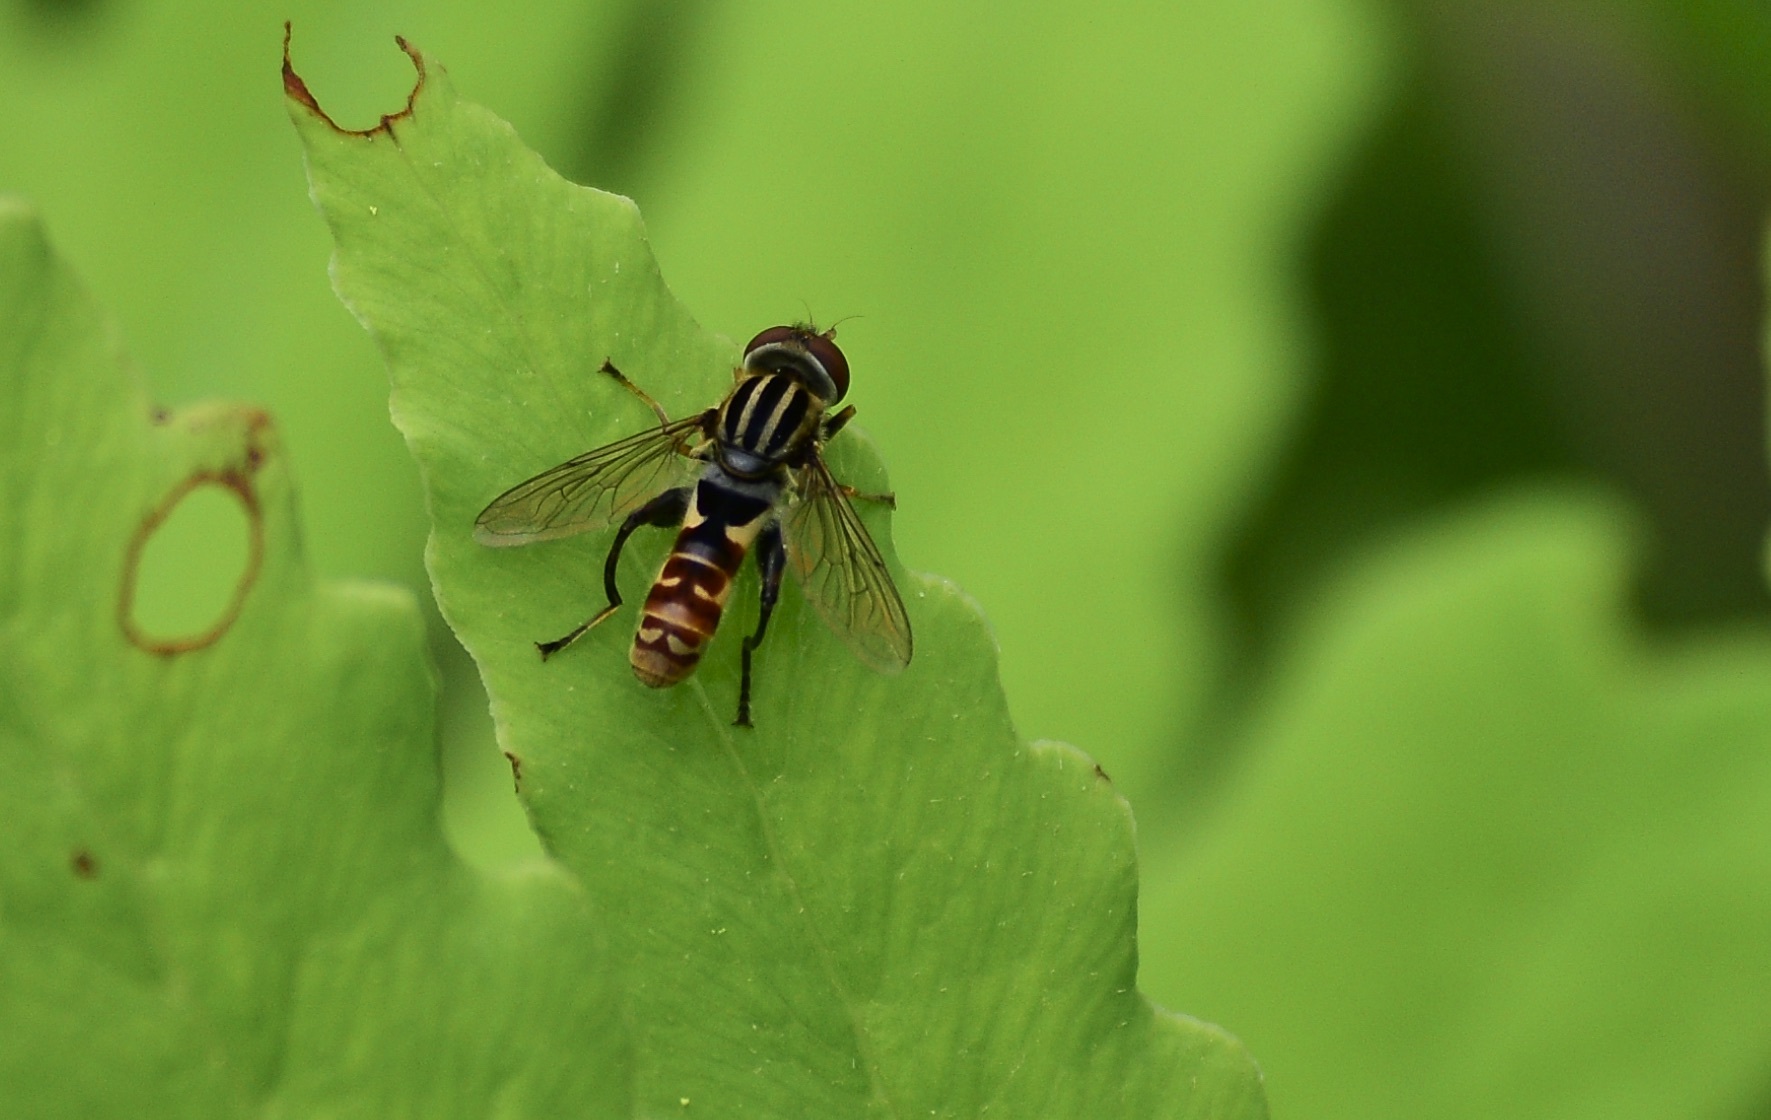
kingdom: Animalia
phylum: Arthropoda
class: Insecta
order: Diptera
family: Syrphidae
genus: Anasimyia
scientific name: Anasimyia chrysostomus
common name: Lump-legged swamp fly
